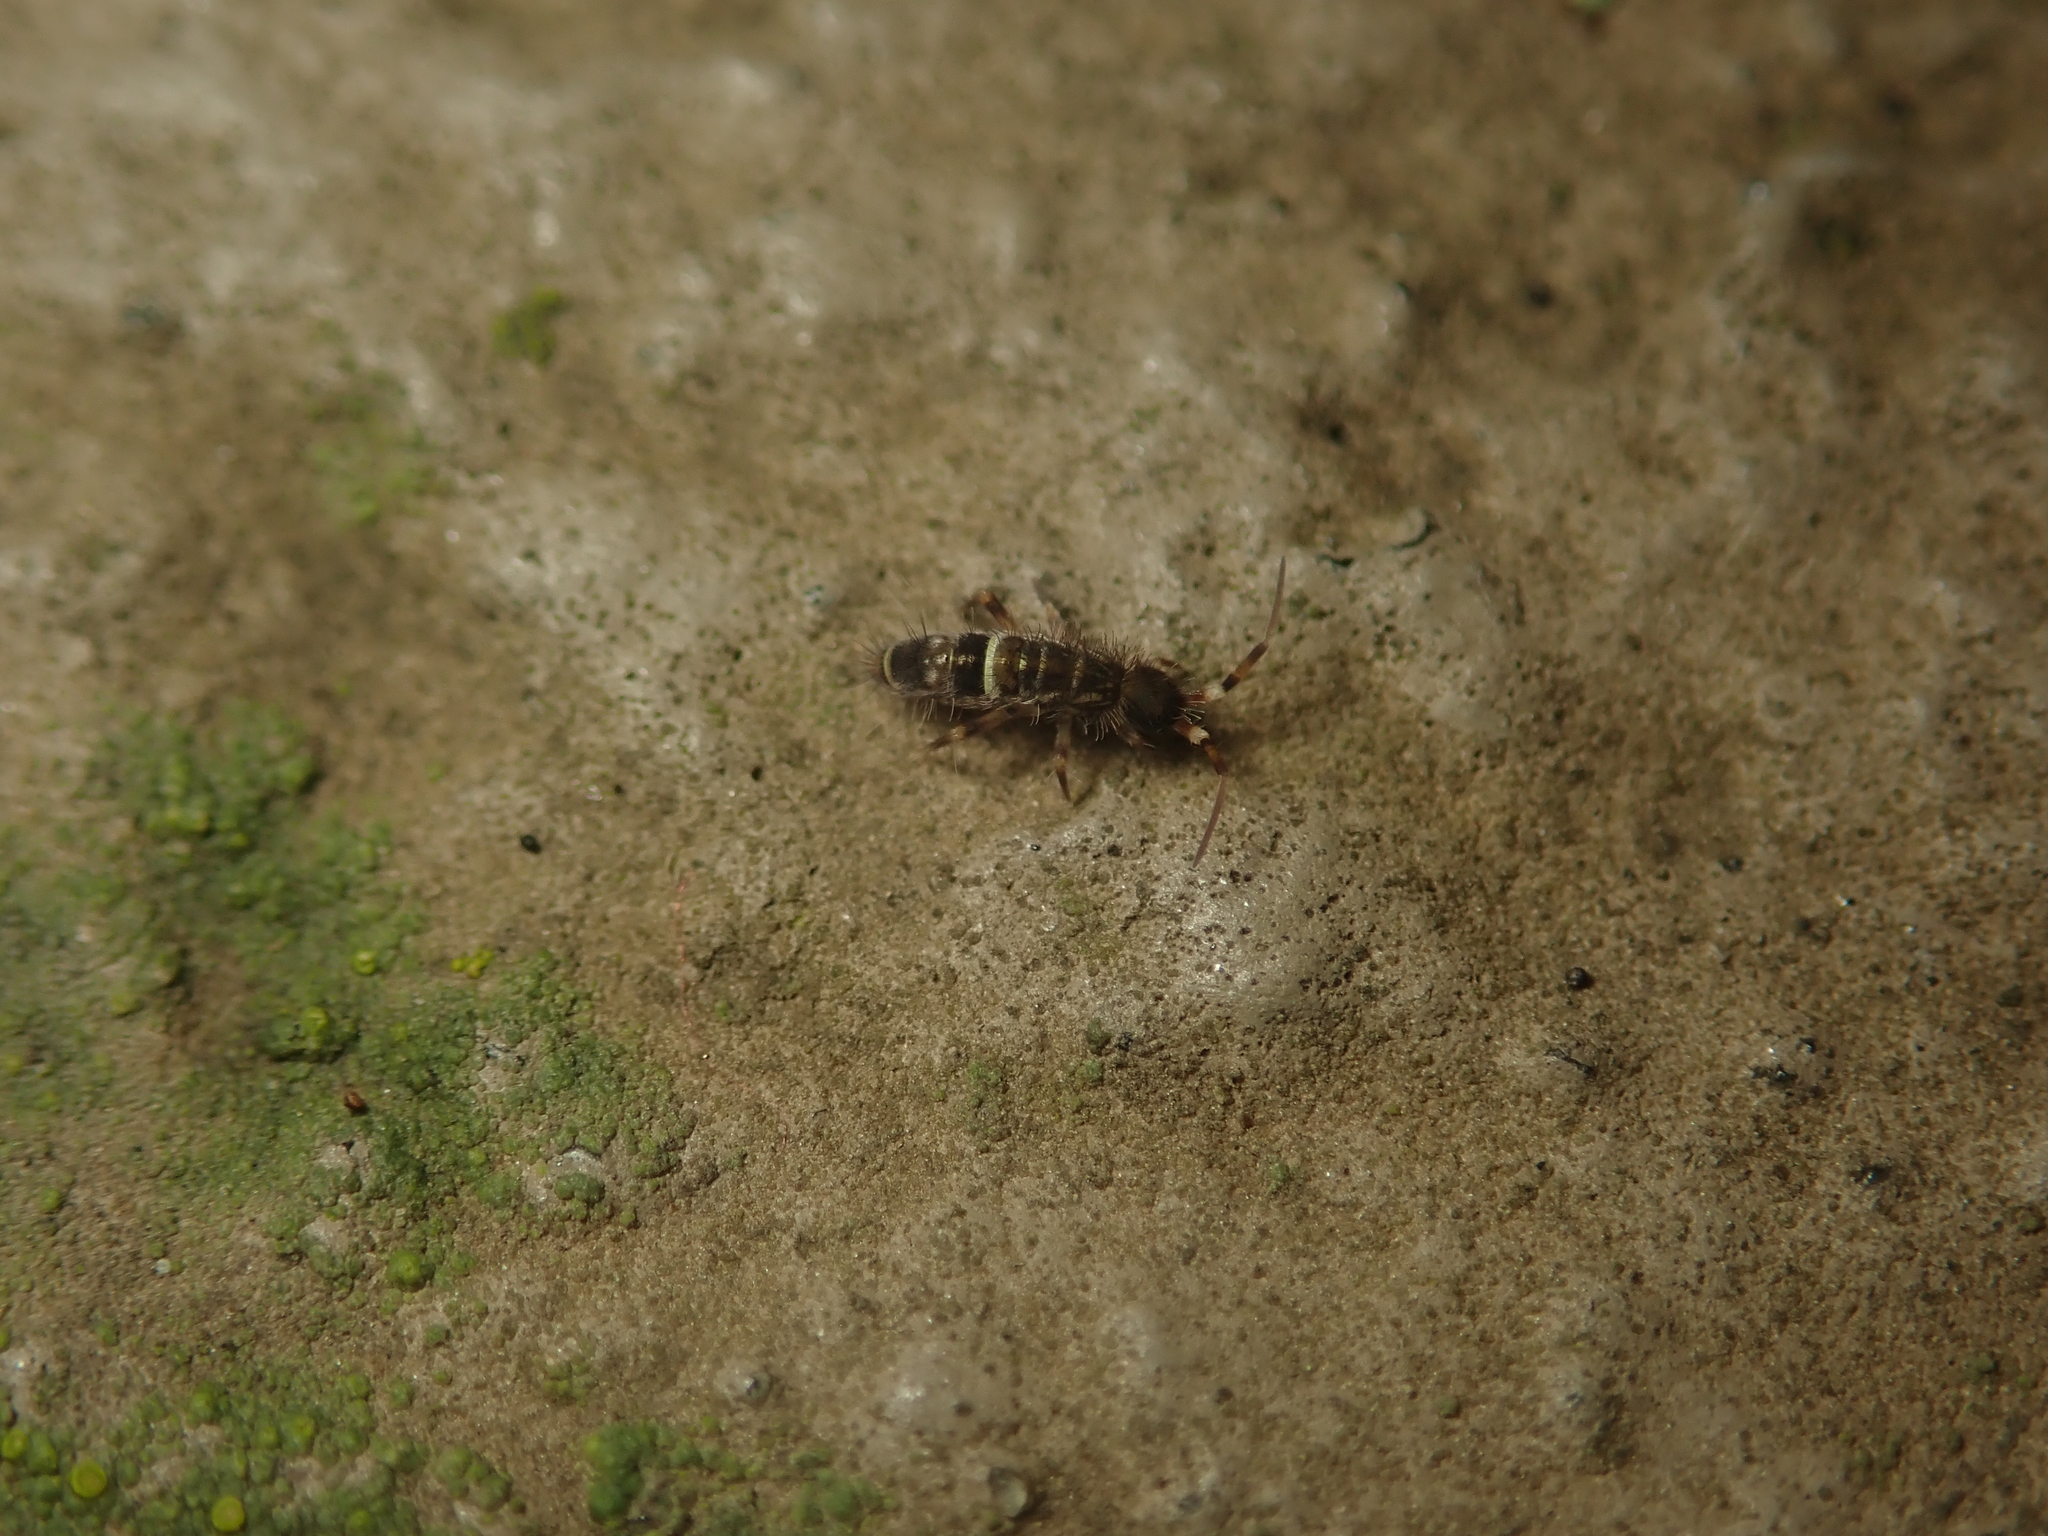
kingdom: Animalia
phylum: Arthropoda
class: Collembola
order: Entomobryomorpha
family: Orchesellidae
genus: Orchesella
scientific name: Orchesella cincta
